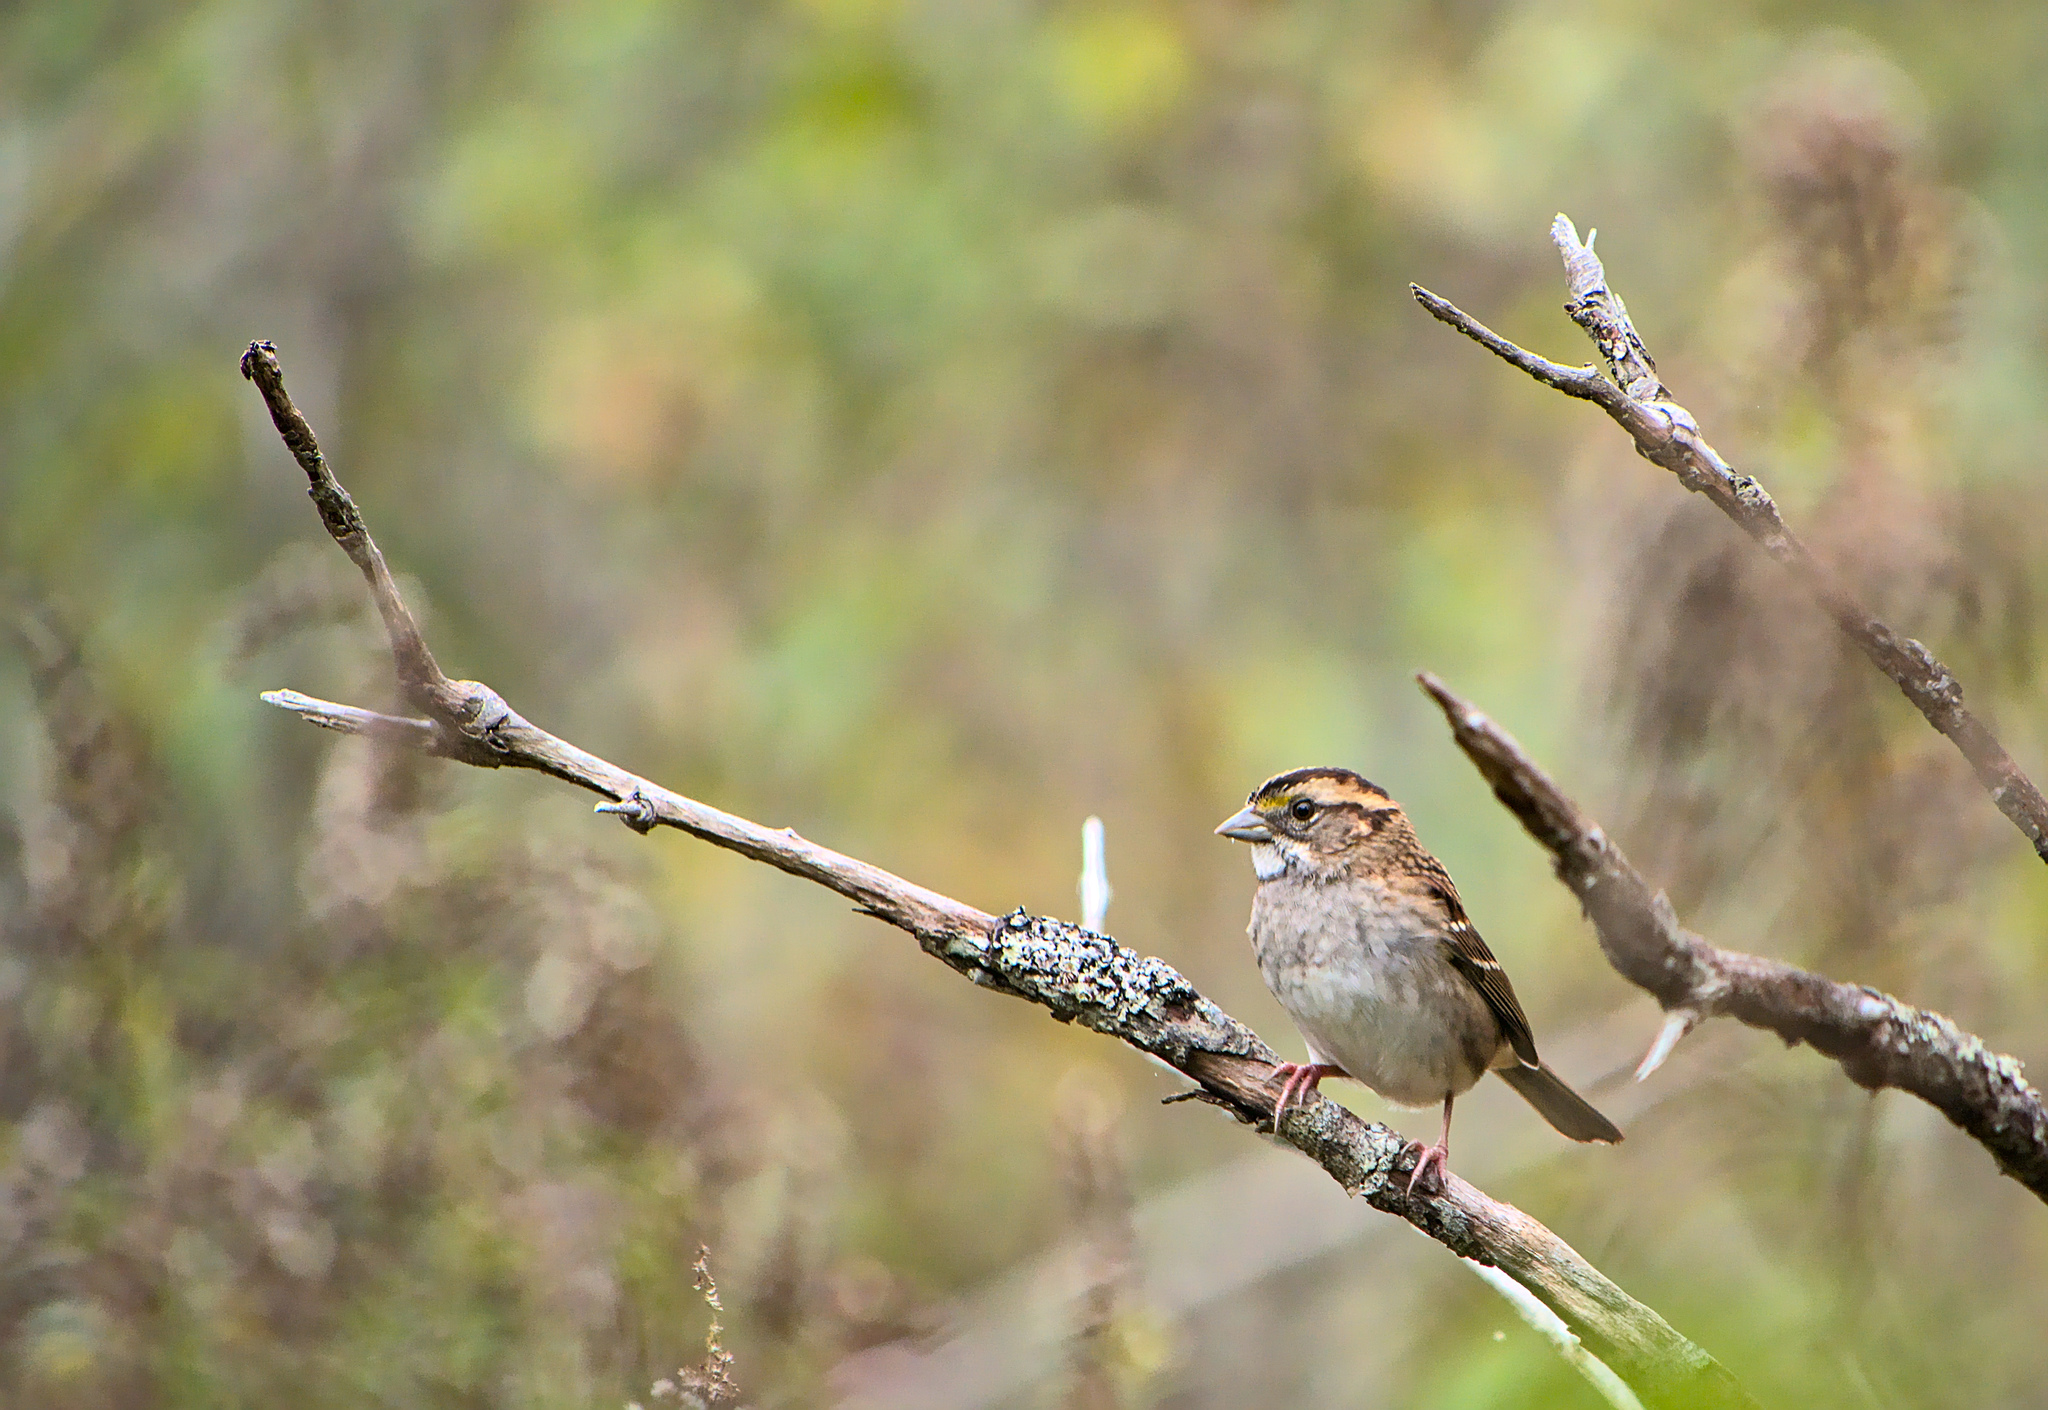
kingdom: Animalia
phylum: Chordata
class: Aves
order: Passeriformes
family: Passerellidae
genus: Zonotrichia
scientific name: Zonotrichia albicollis
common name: White-throated sparrow
